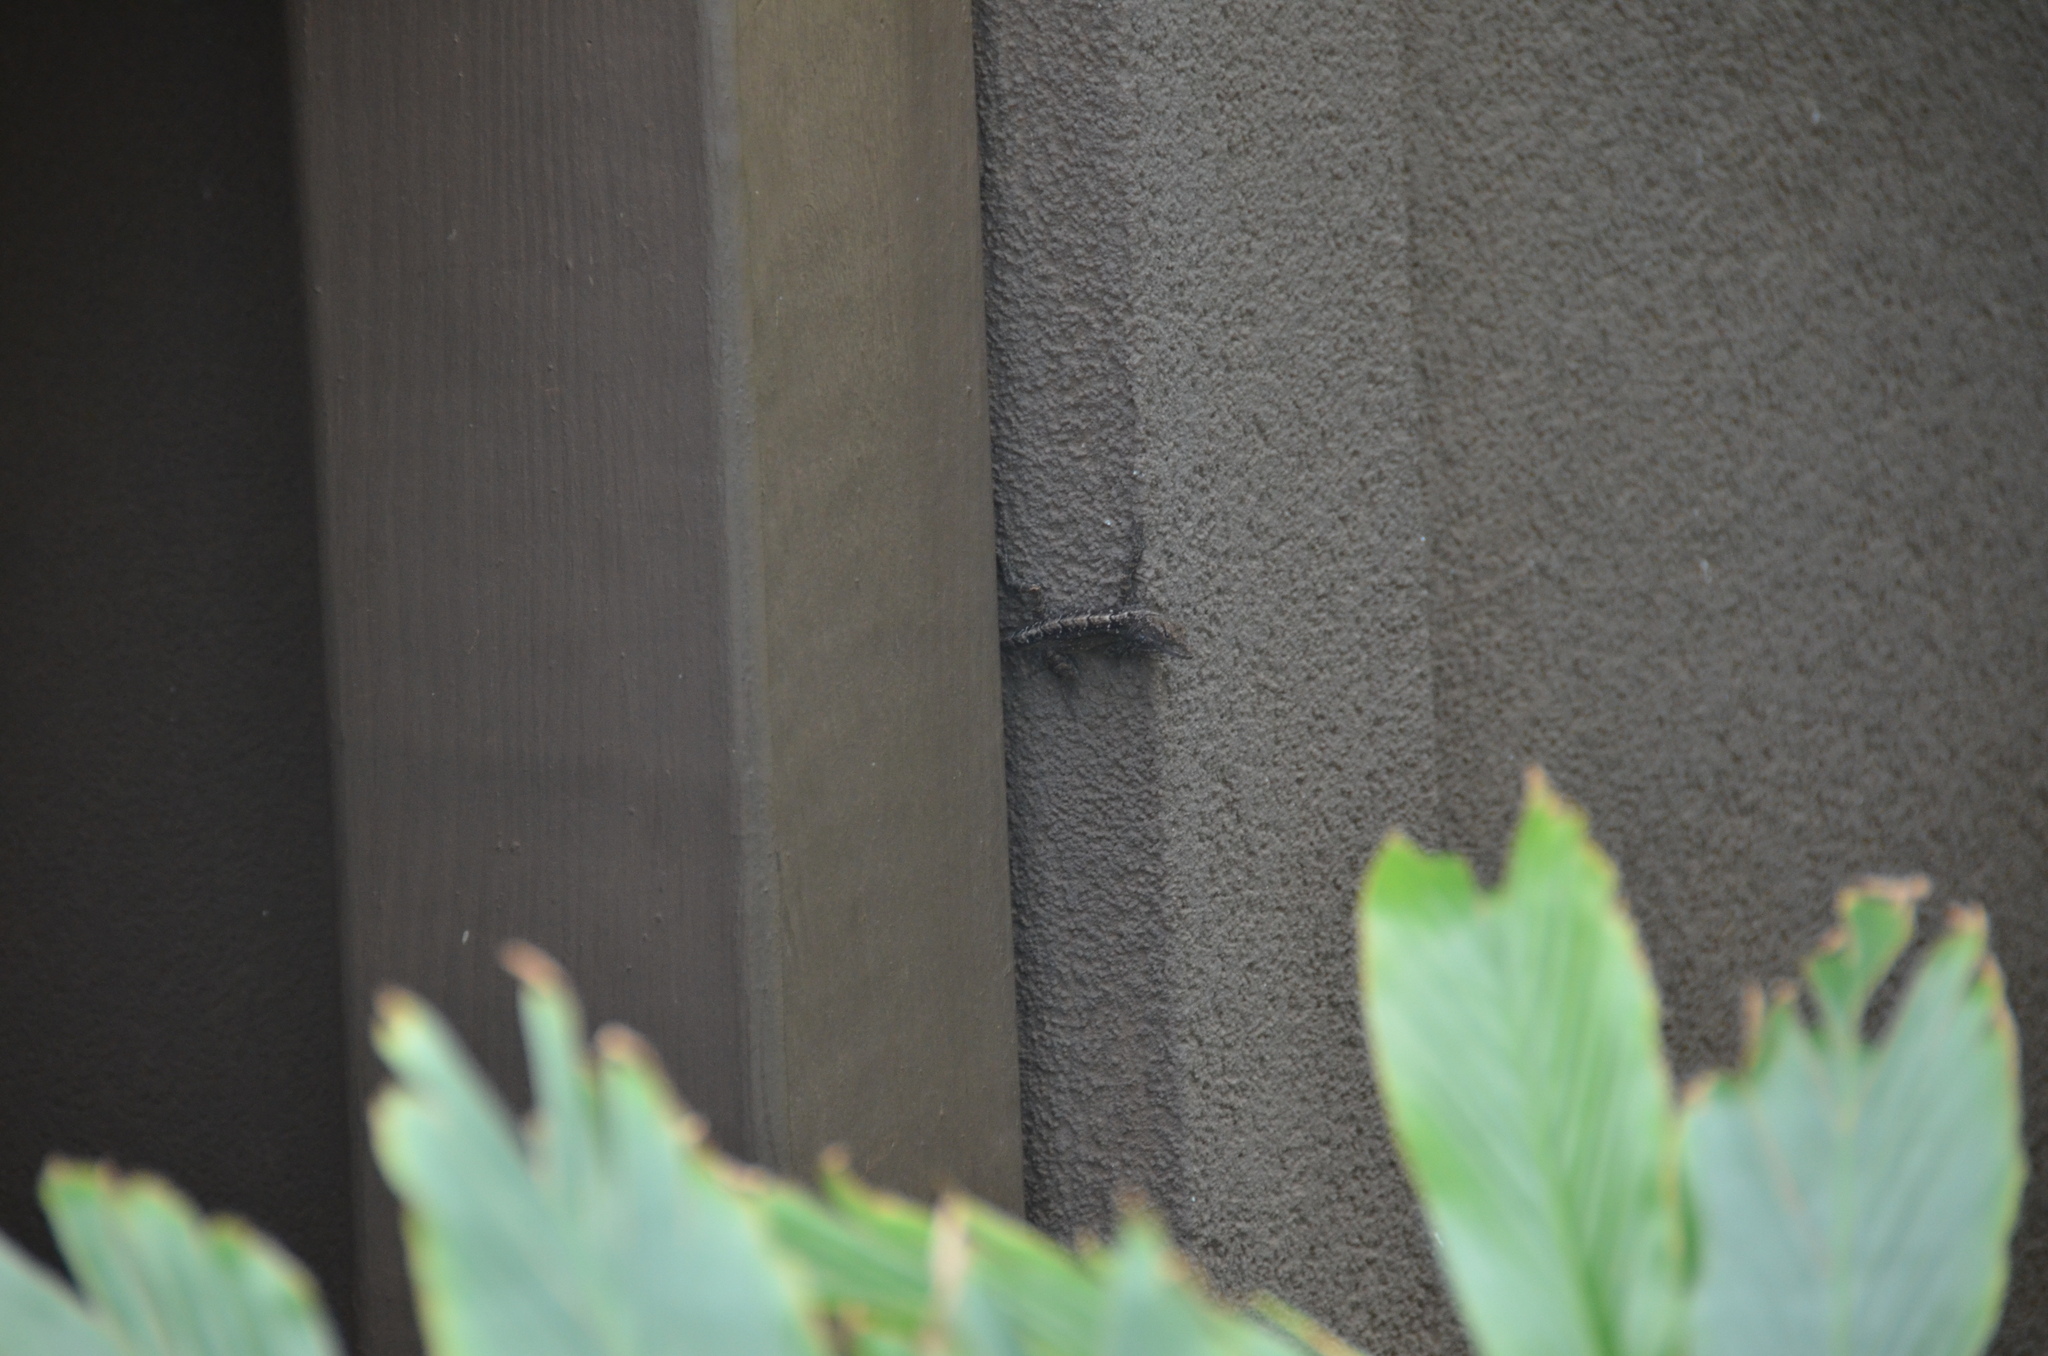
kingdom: Animalia
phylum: Chordata
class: Squamata
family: Dactyloidae
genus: Anolis
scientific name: Anolis sagrei
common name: Brown anole
